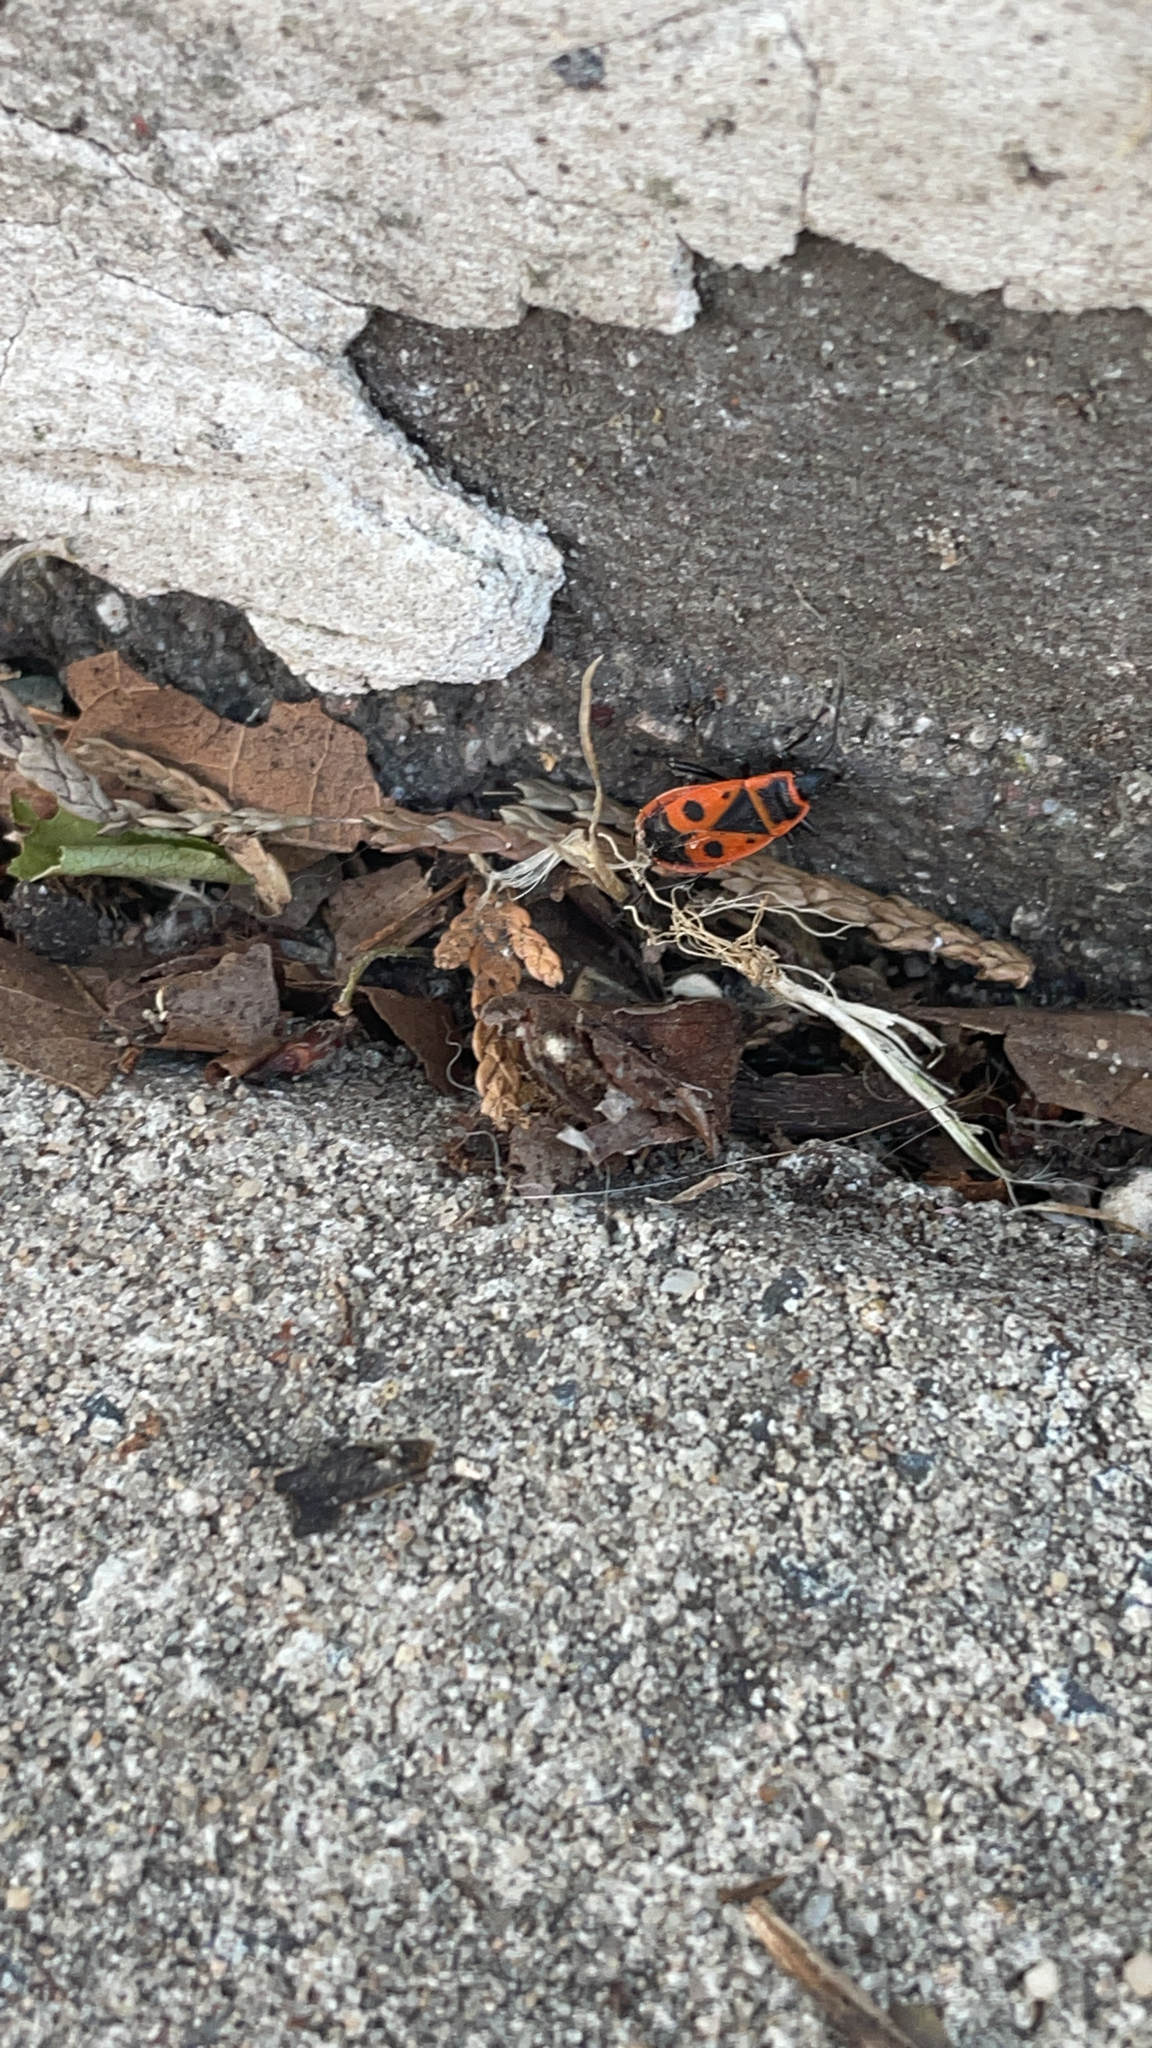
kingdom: Animalia
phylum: Arthropoda
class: Insecta
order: Hemiptera
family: Pyrrhocoridae
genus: Pyrrhocoris
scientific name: Pyrrhocoris apterus
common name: Firebug
